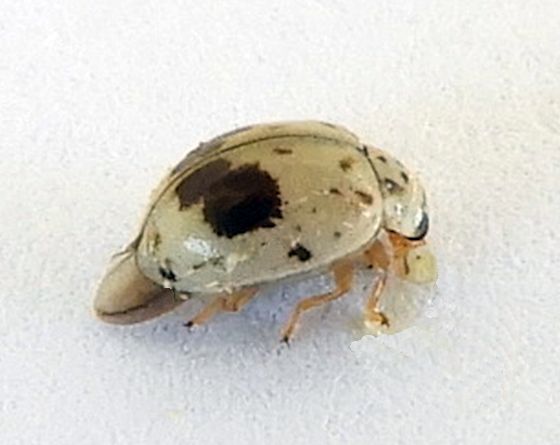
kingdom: Animalia
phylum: Arthropoda
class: Insecta
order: Coleoptera
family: Coccinellidae
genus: Psyllobora
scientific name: Psyllobora plagiata
